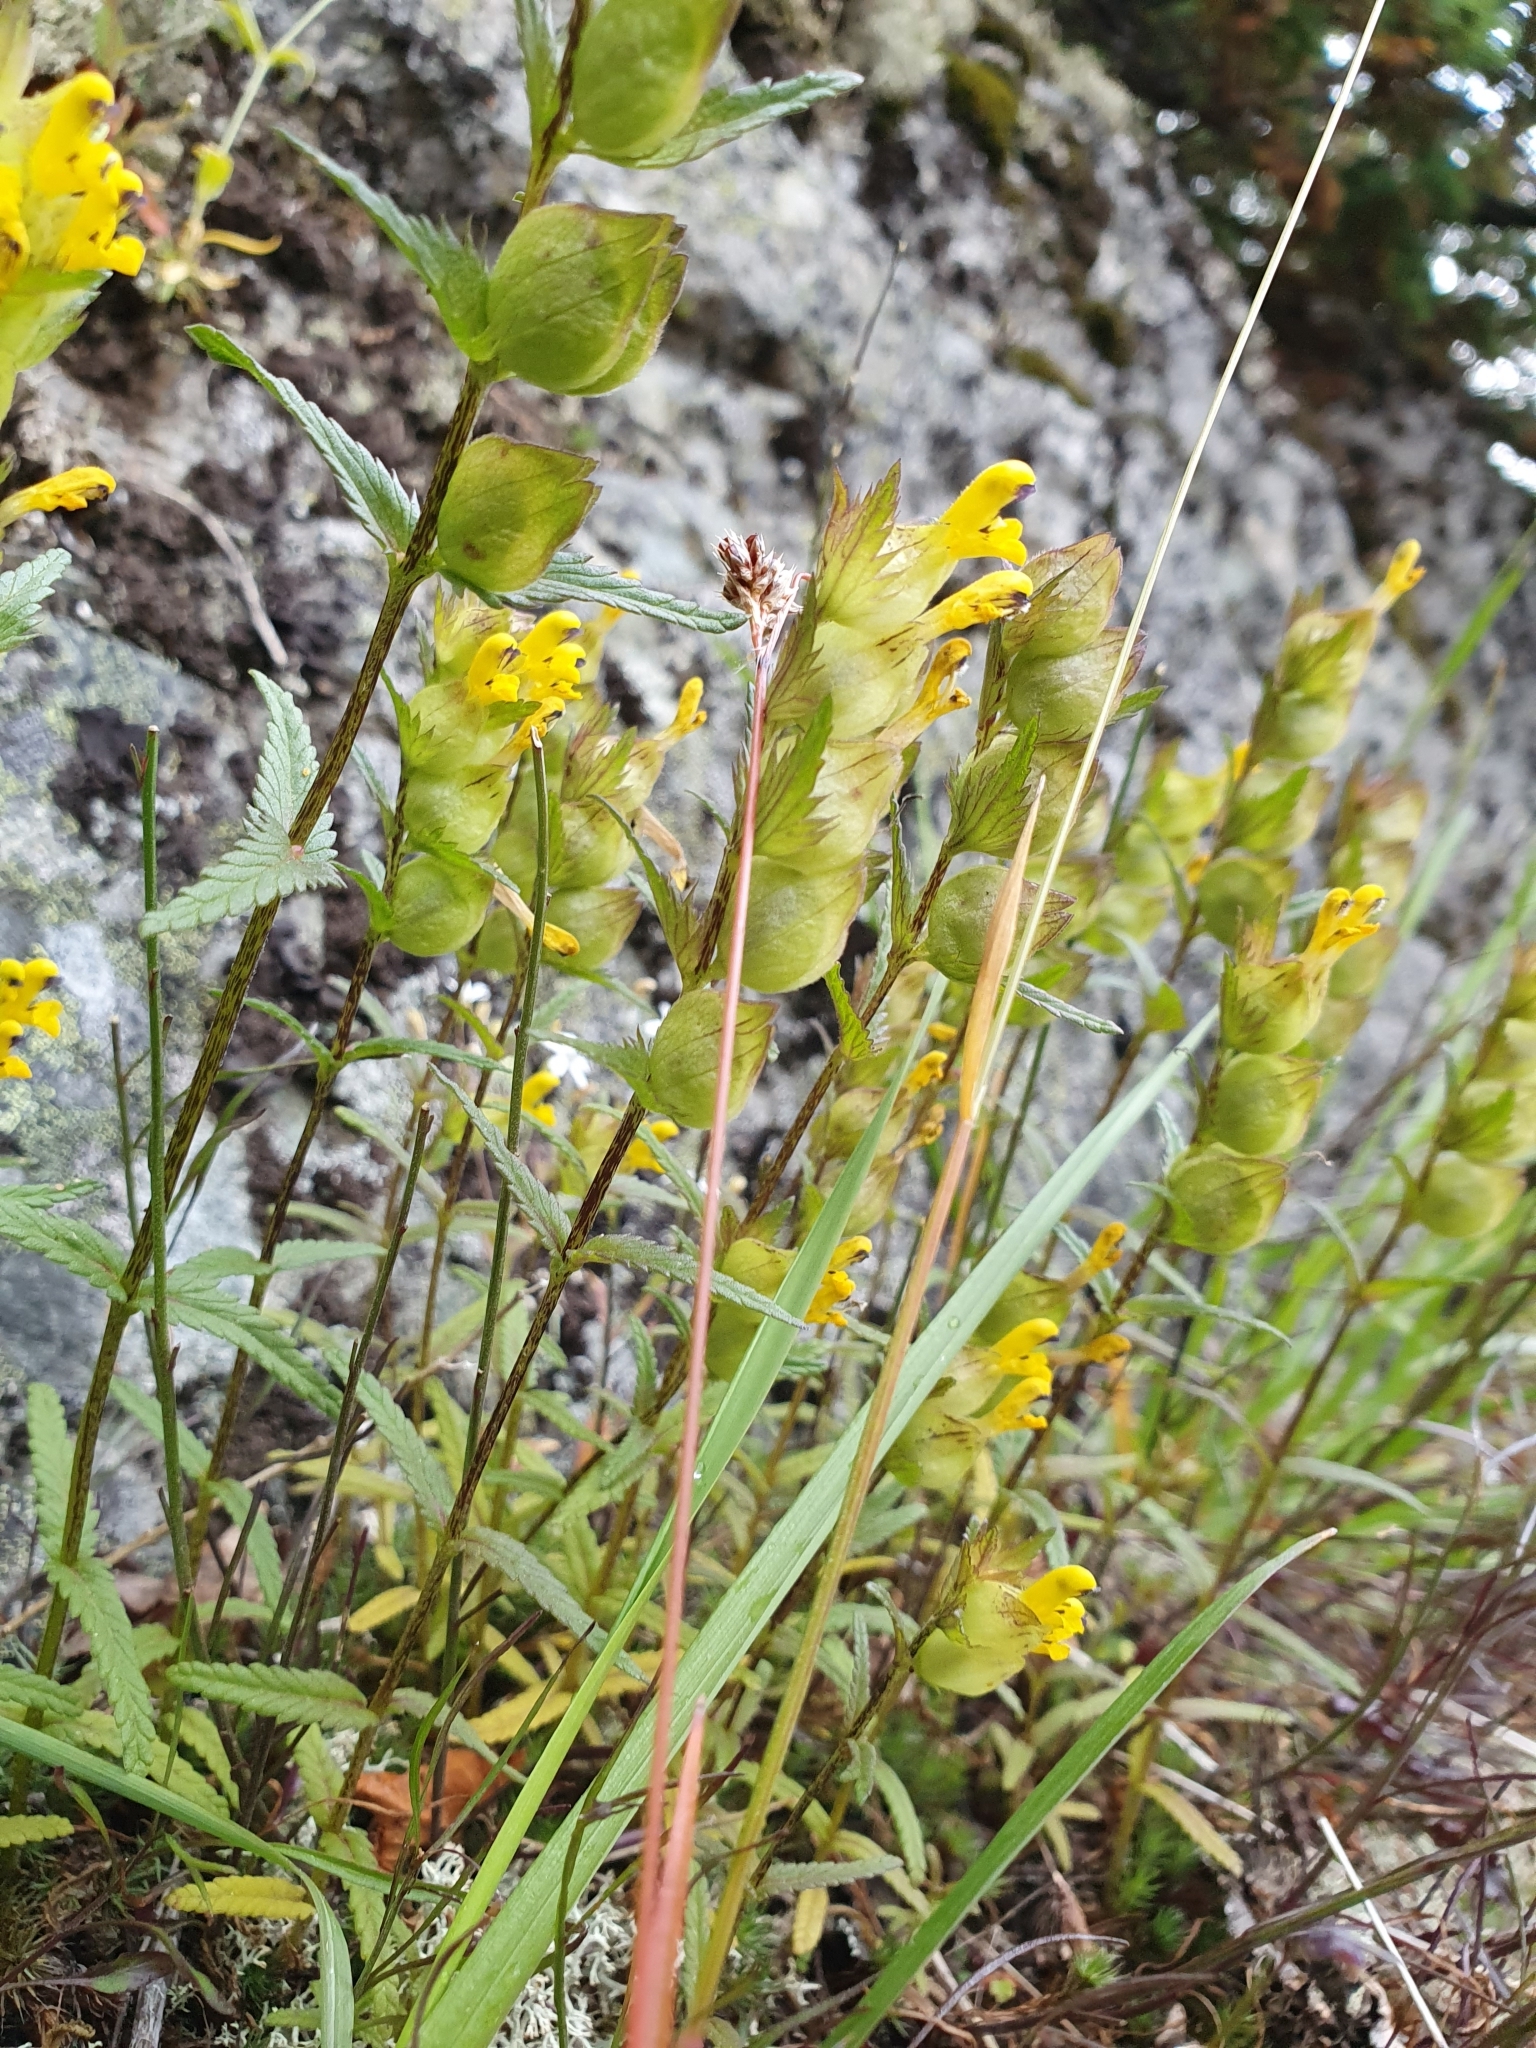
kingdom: Plantae
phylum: Tracheophyta
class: Magnoliopsida
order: Lamiales
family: Orobanchaceae
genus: Rhinanthus
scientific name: Rhinanthus minor
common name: Yellow-rattle
